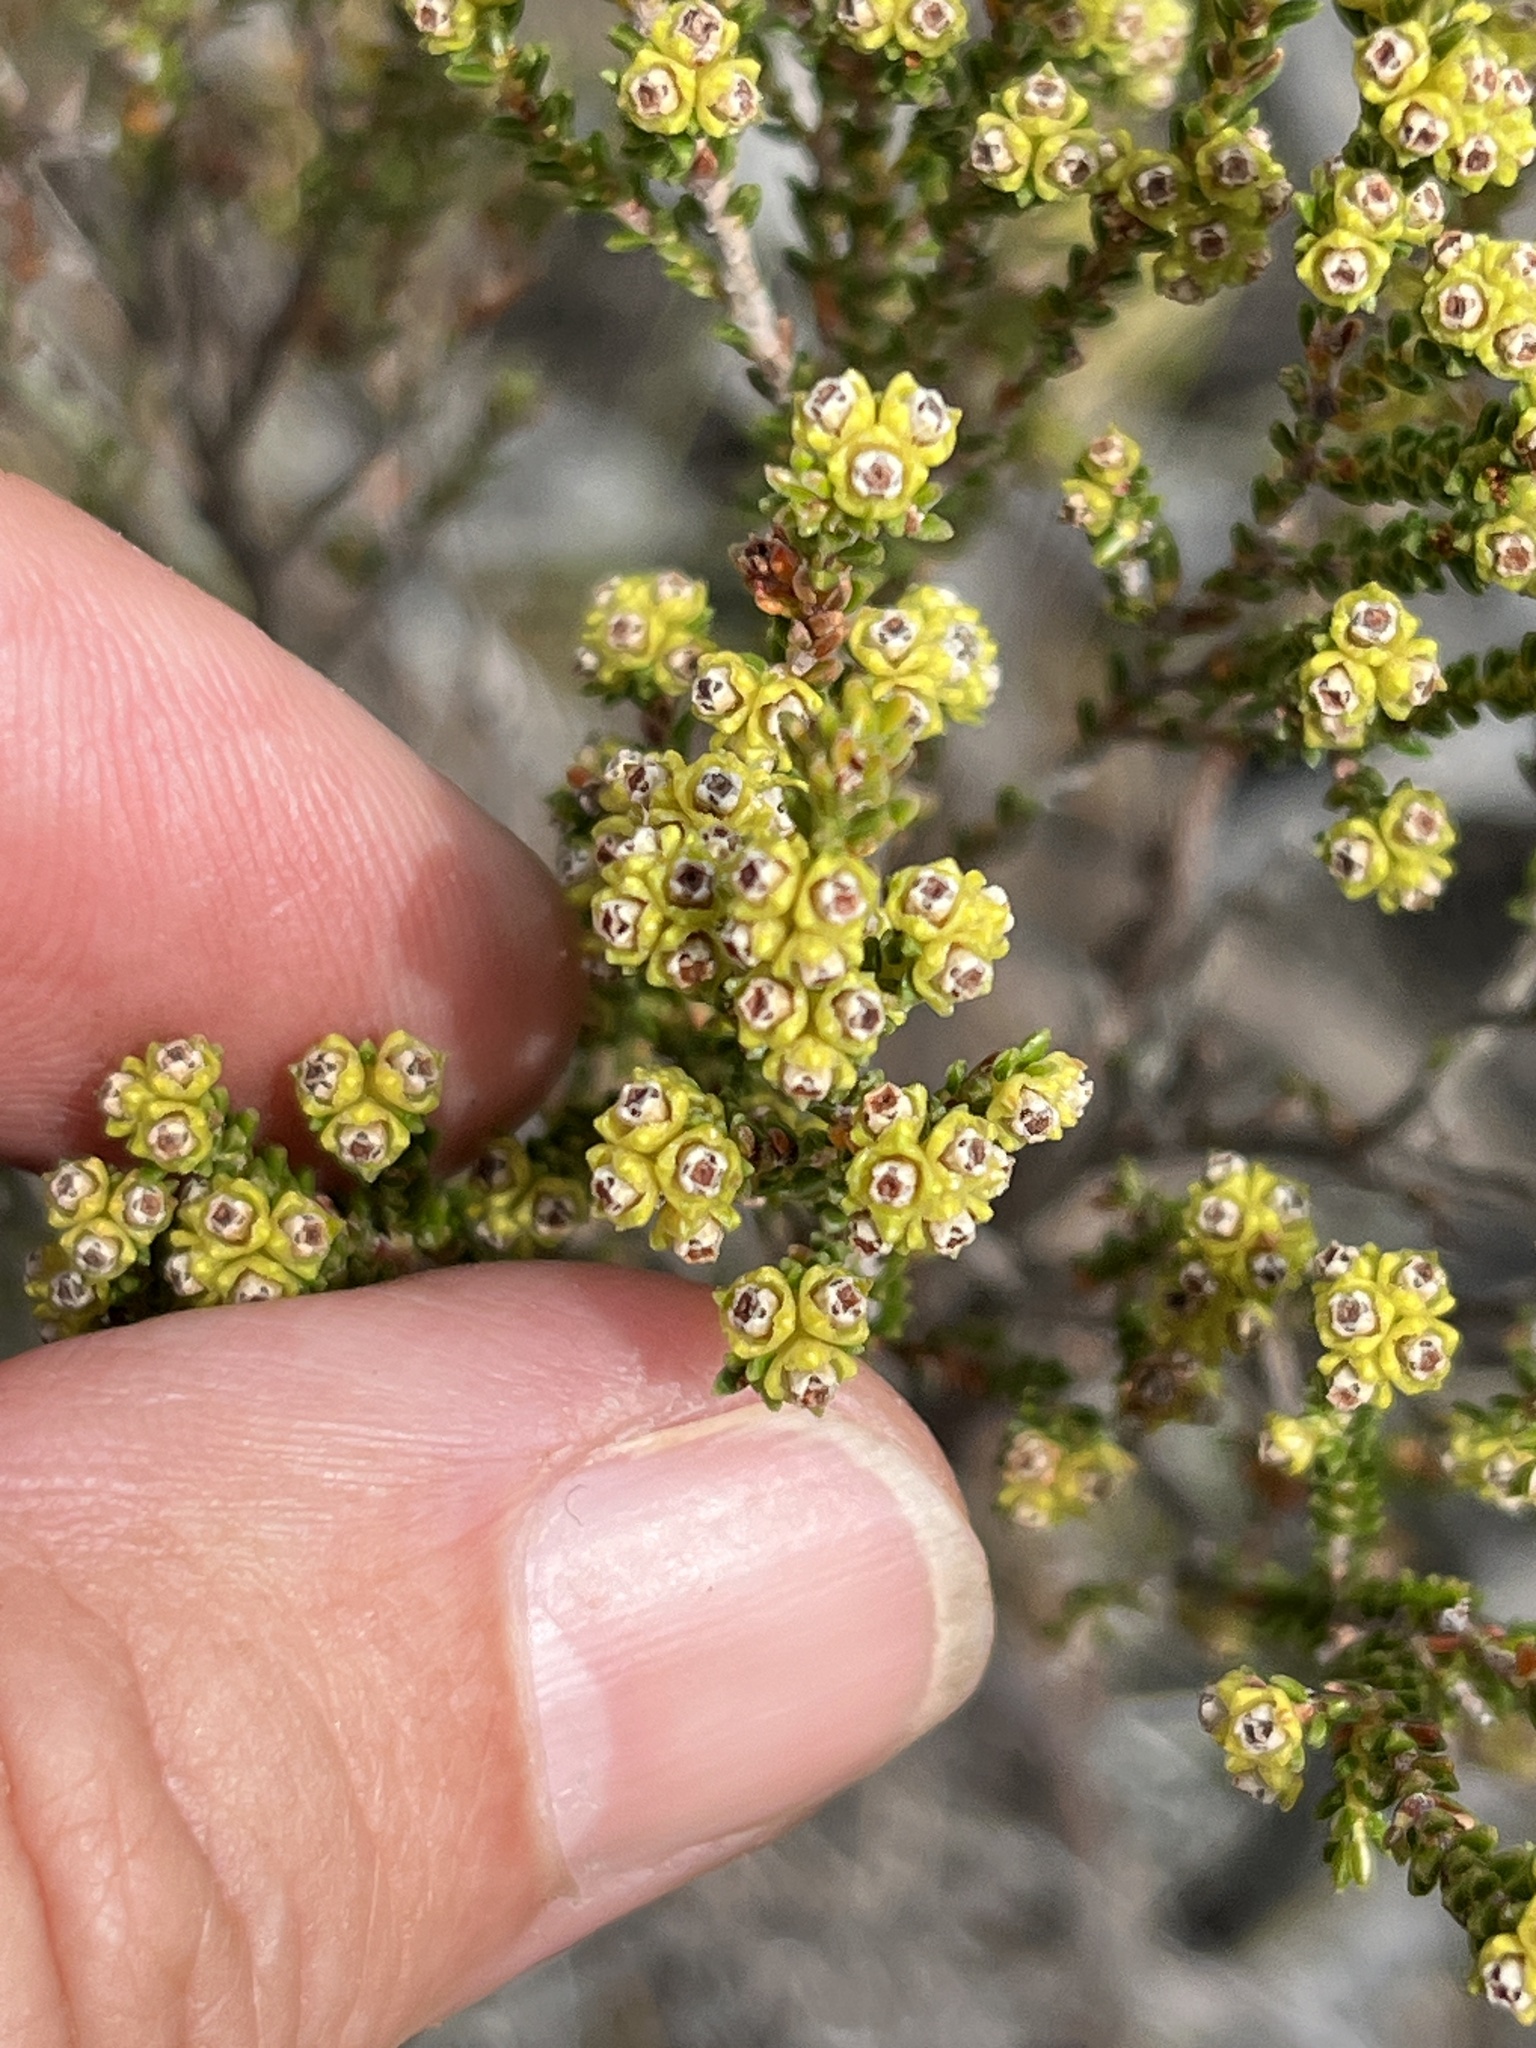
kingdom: Plantae
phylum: Tracheophyta
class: Magnoliopsida
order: Ericales
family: Ericaceae
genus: Erica
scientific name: Erica serrata
